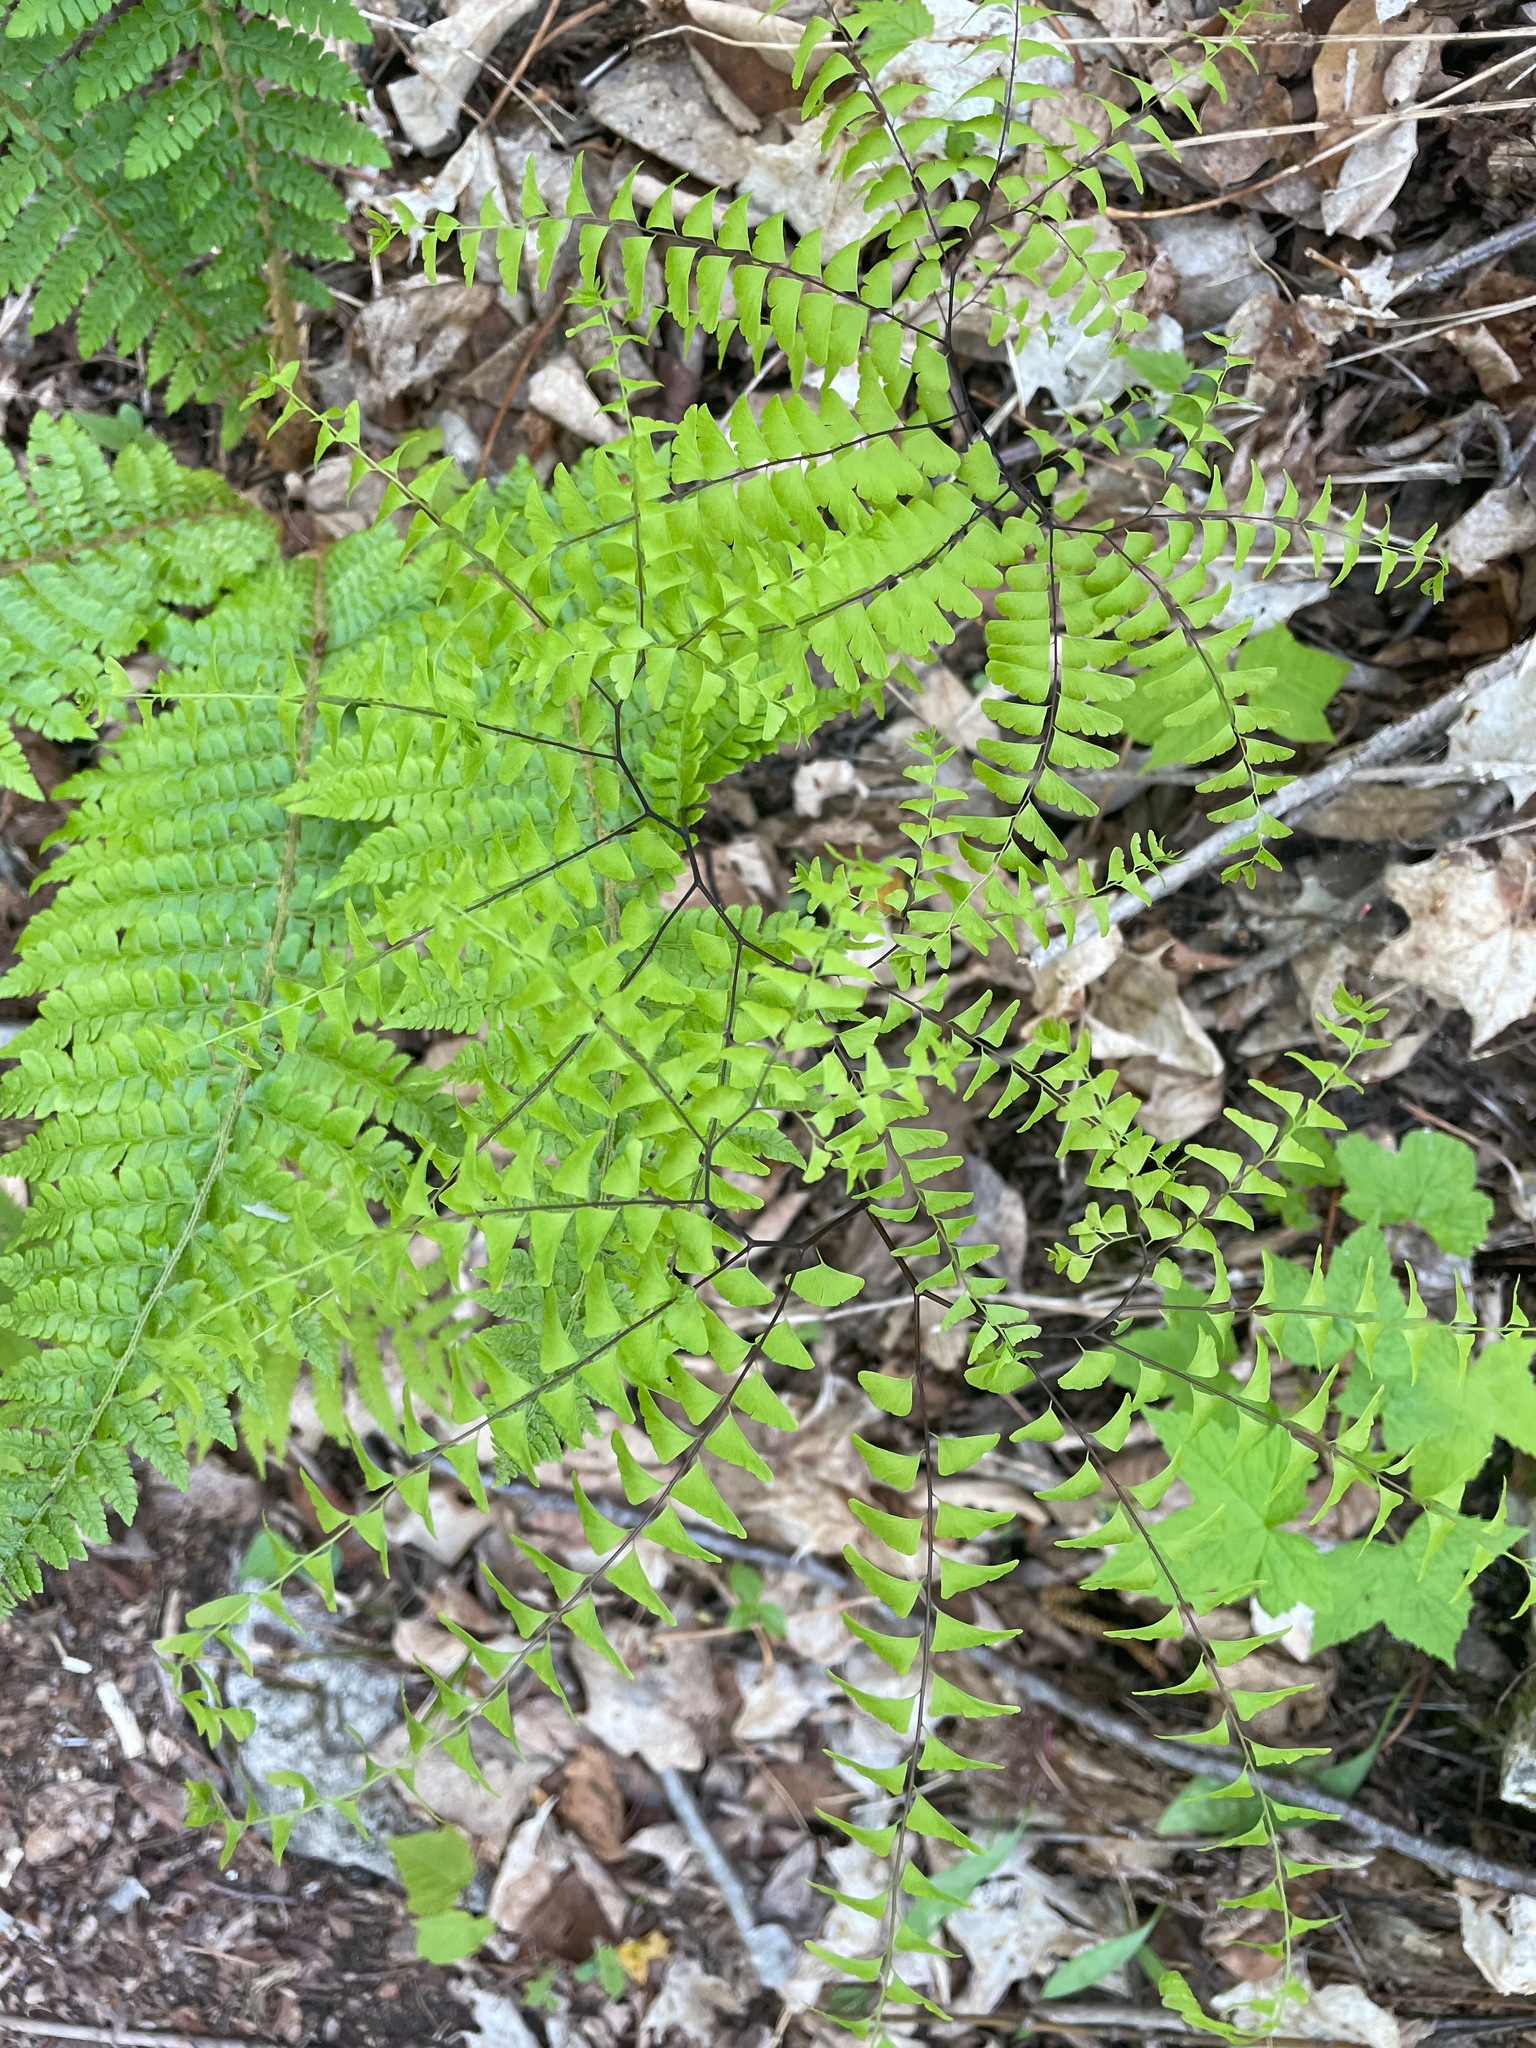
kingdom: Plantae
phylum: Tracheophyta
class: Polypodiopsida
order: Polypodiales
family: Pteridaceae
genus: Adiantum
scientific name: Adiantum pedatum
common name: Five-finger fern
